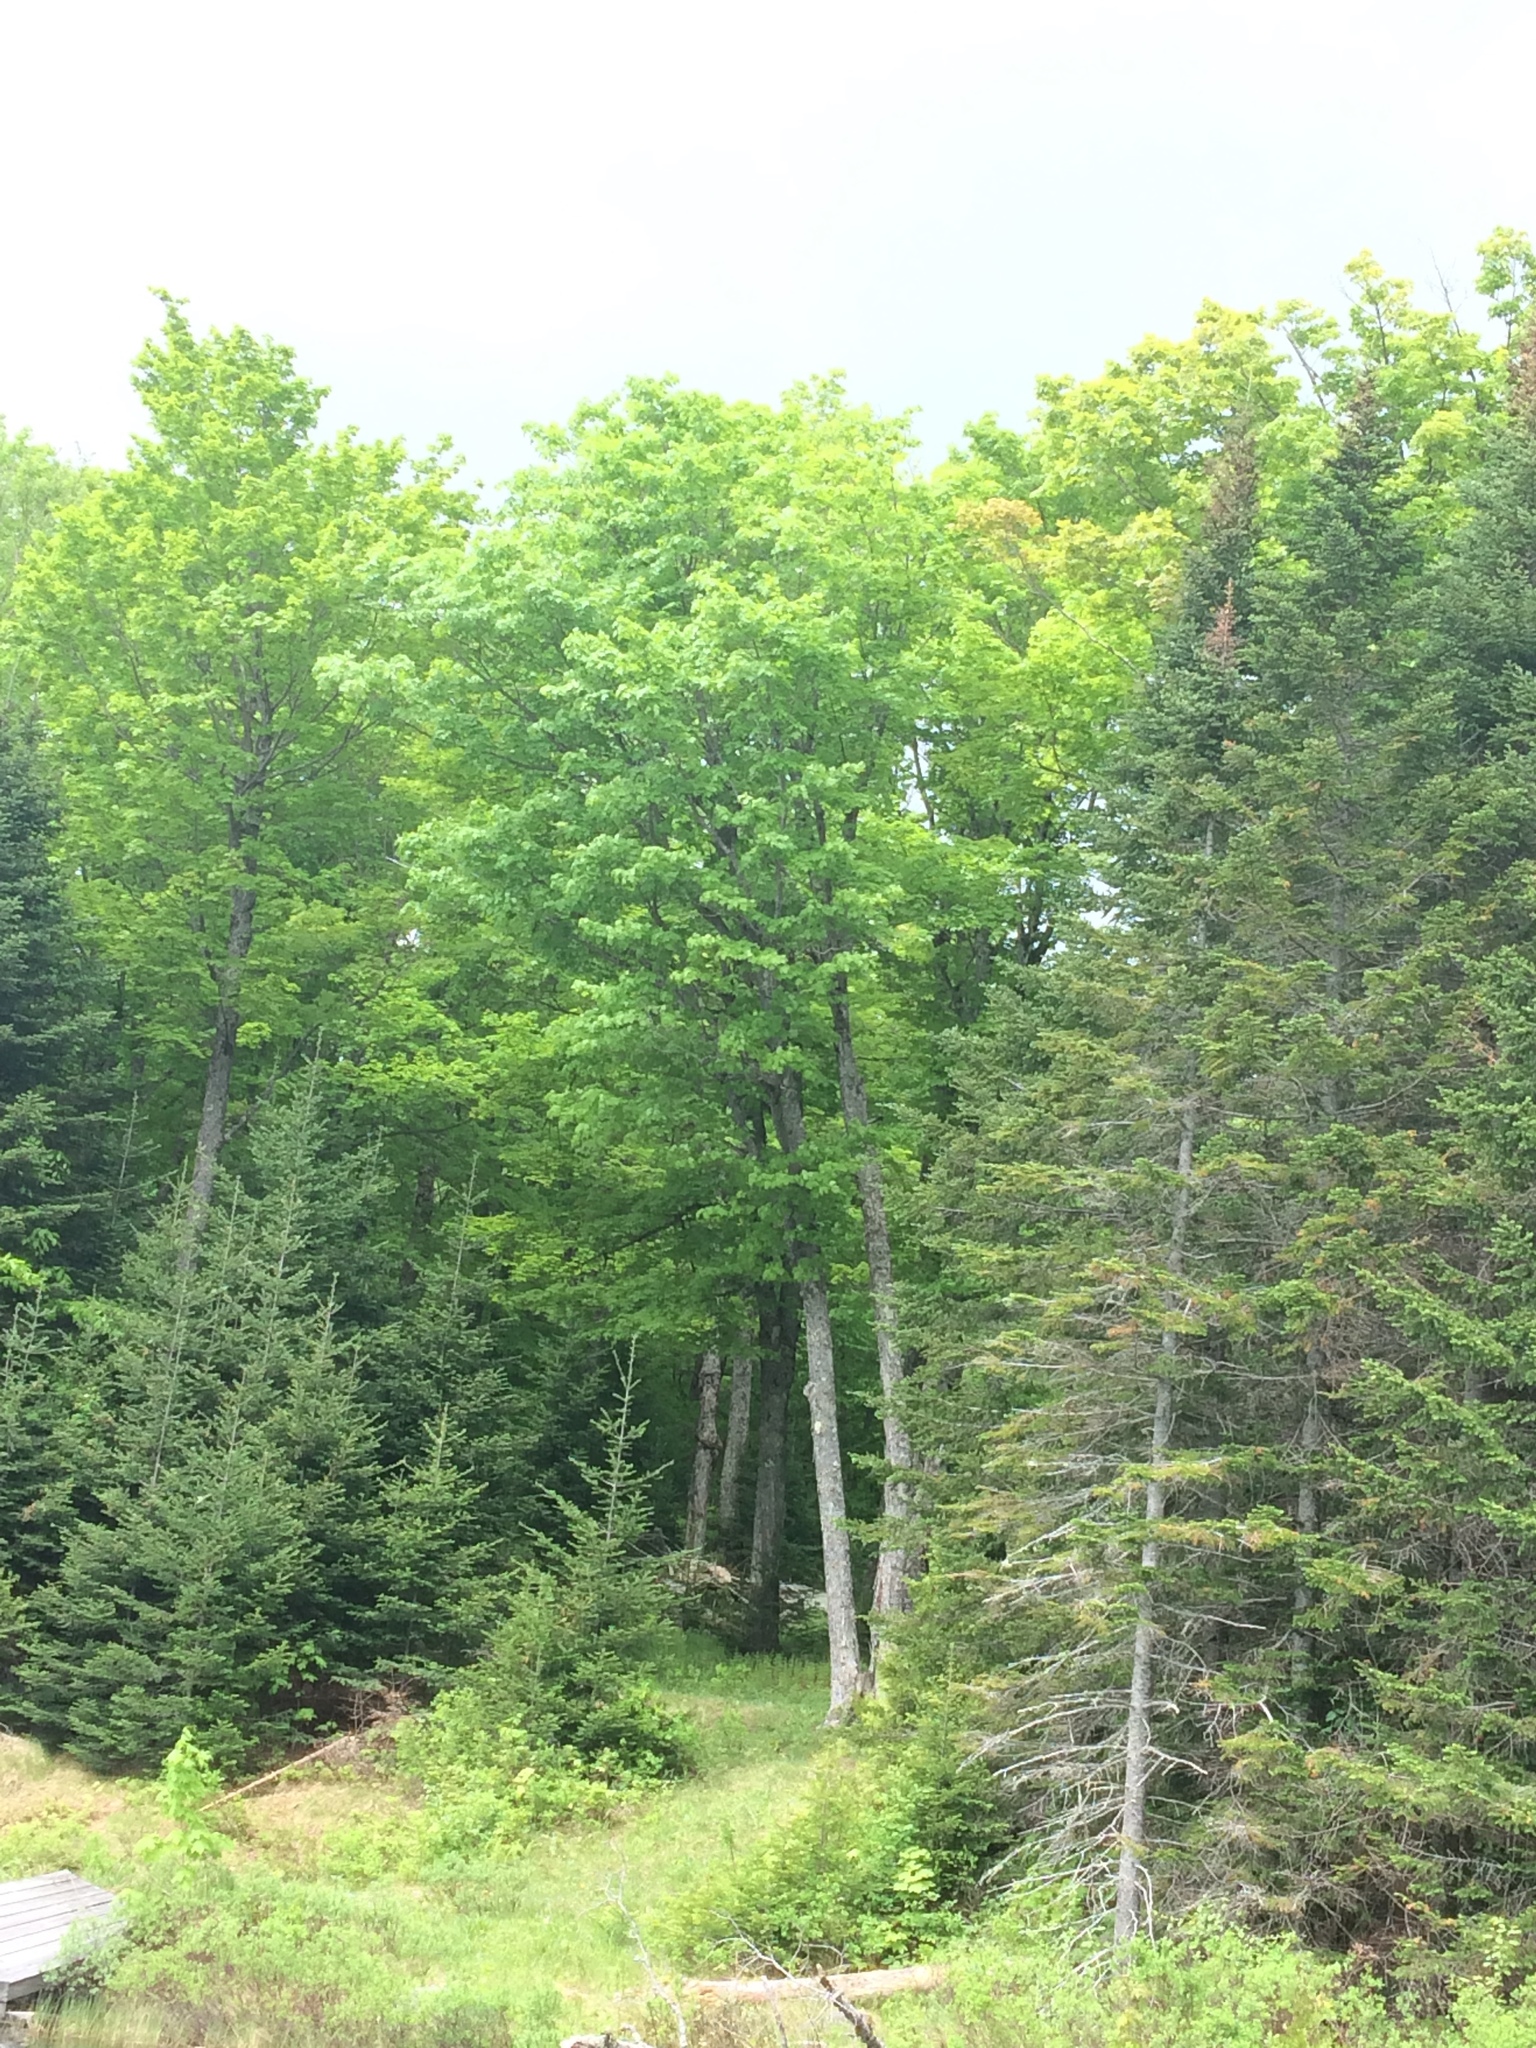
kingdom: Plantae
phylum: Tracheophyta
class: Magnoliopsida
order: Sapindales
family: Sapindaceae
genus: Acer
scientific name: Acer saccharum
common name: Sugar maple
